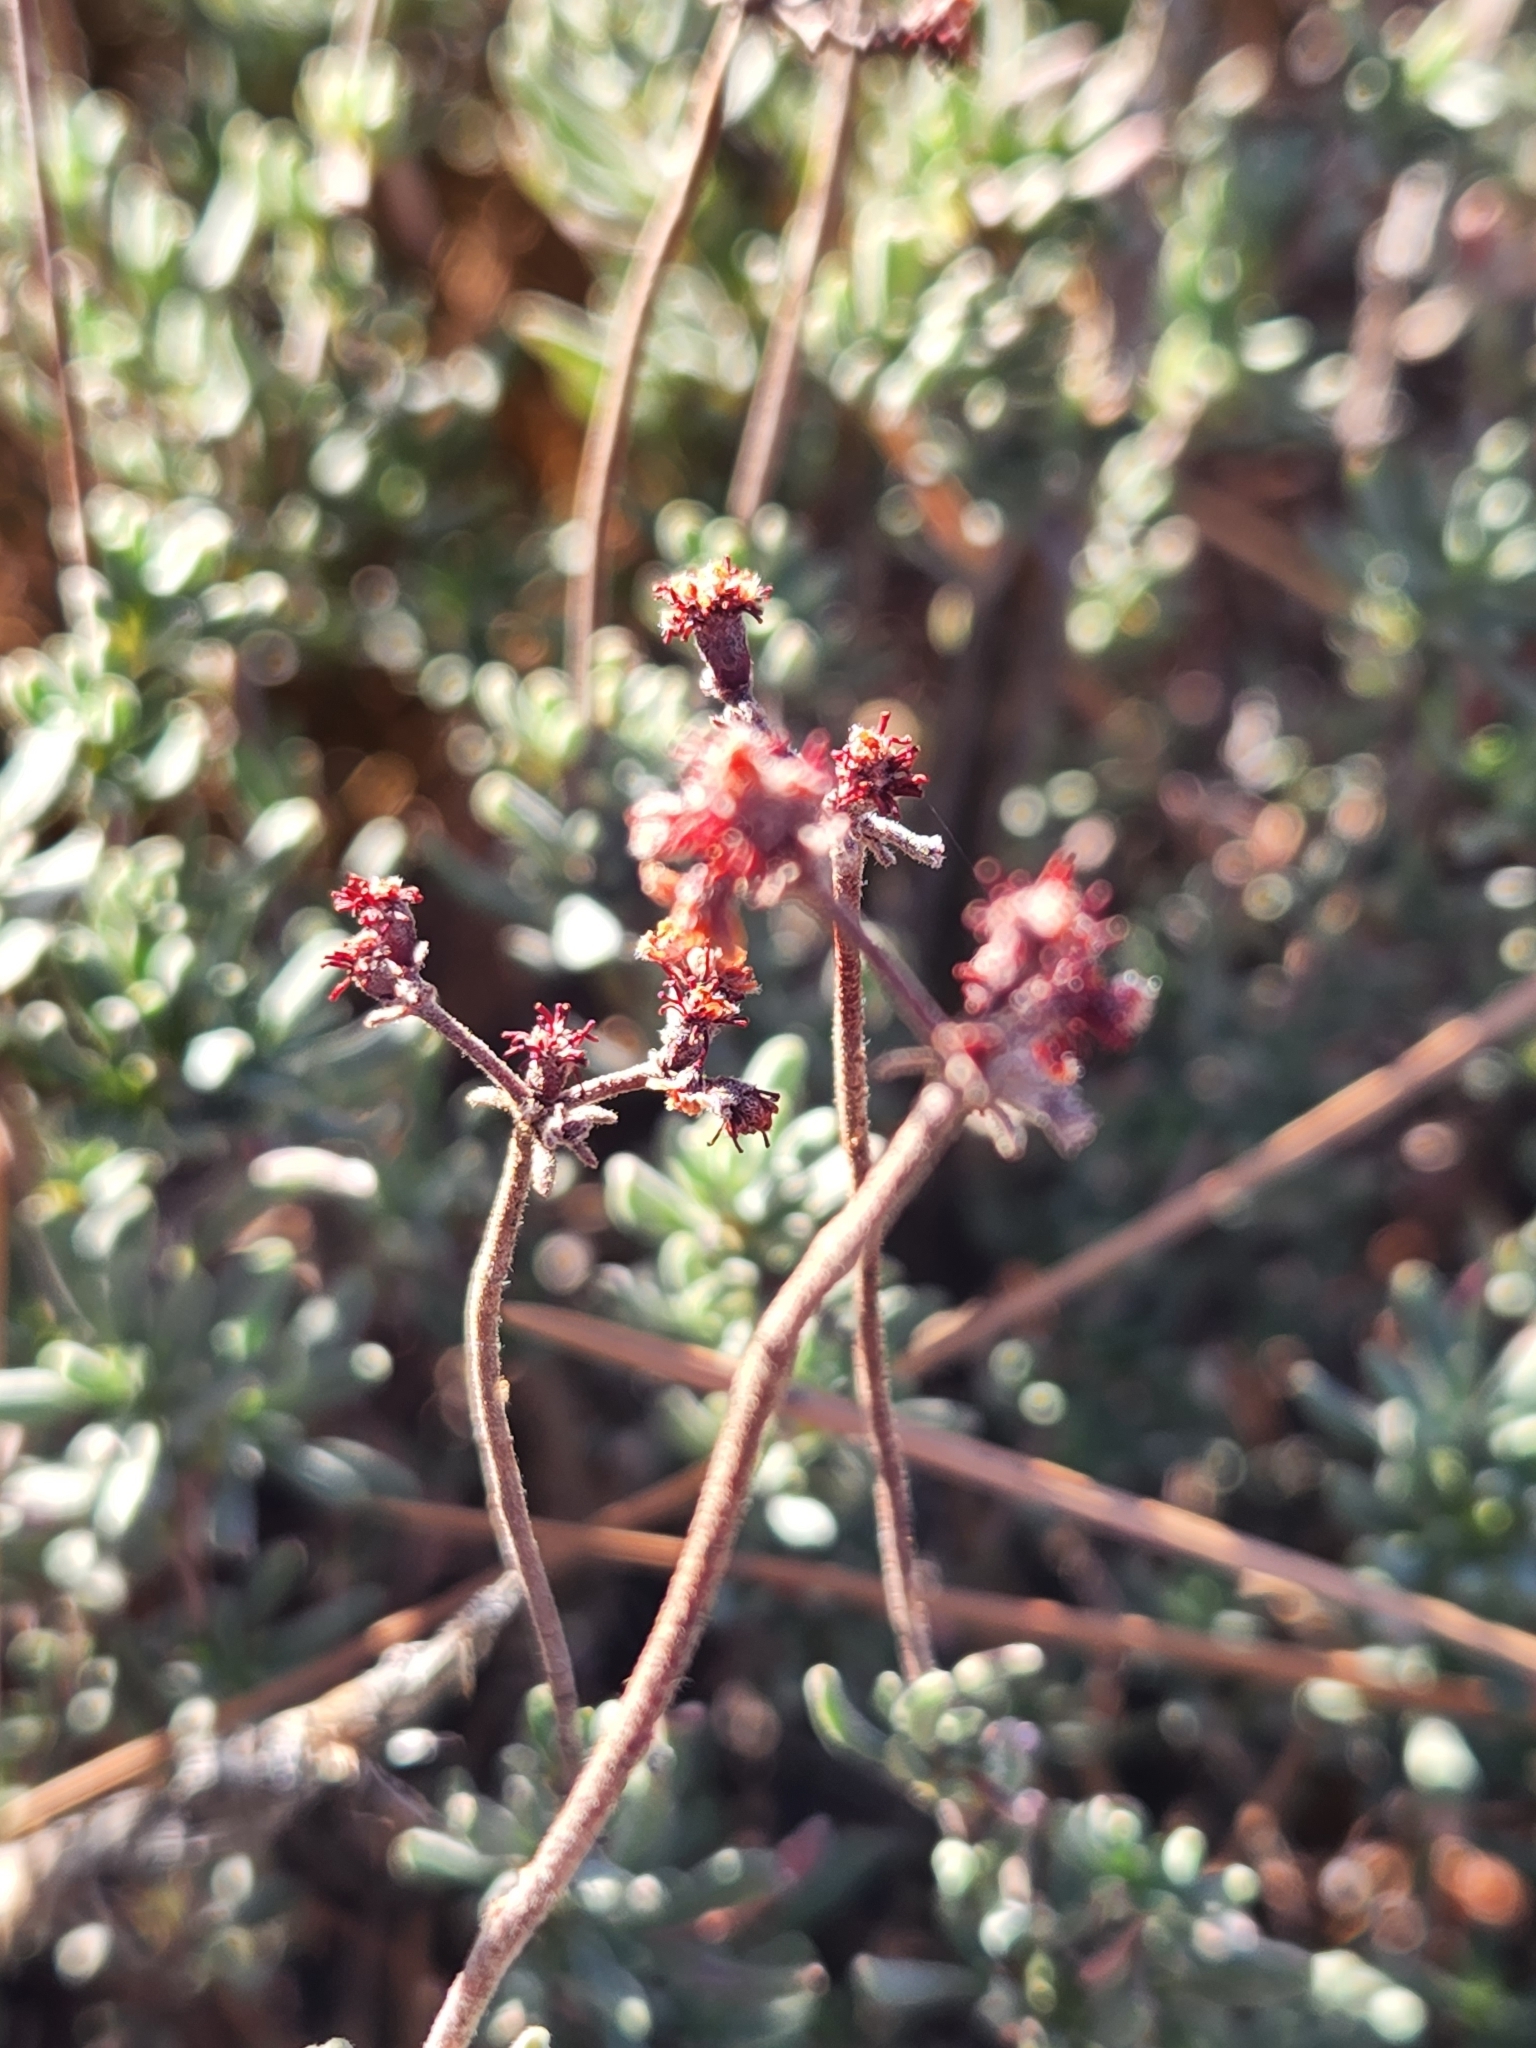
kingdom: Plantae
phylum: Tracheophyta
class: Magnoliopsida
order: Caryophyllales
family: Polygonaceae
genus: Eriogonum
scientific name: Eriogonum fasciculatum
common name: California wild buckwheat
